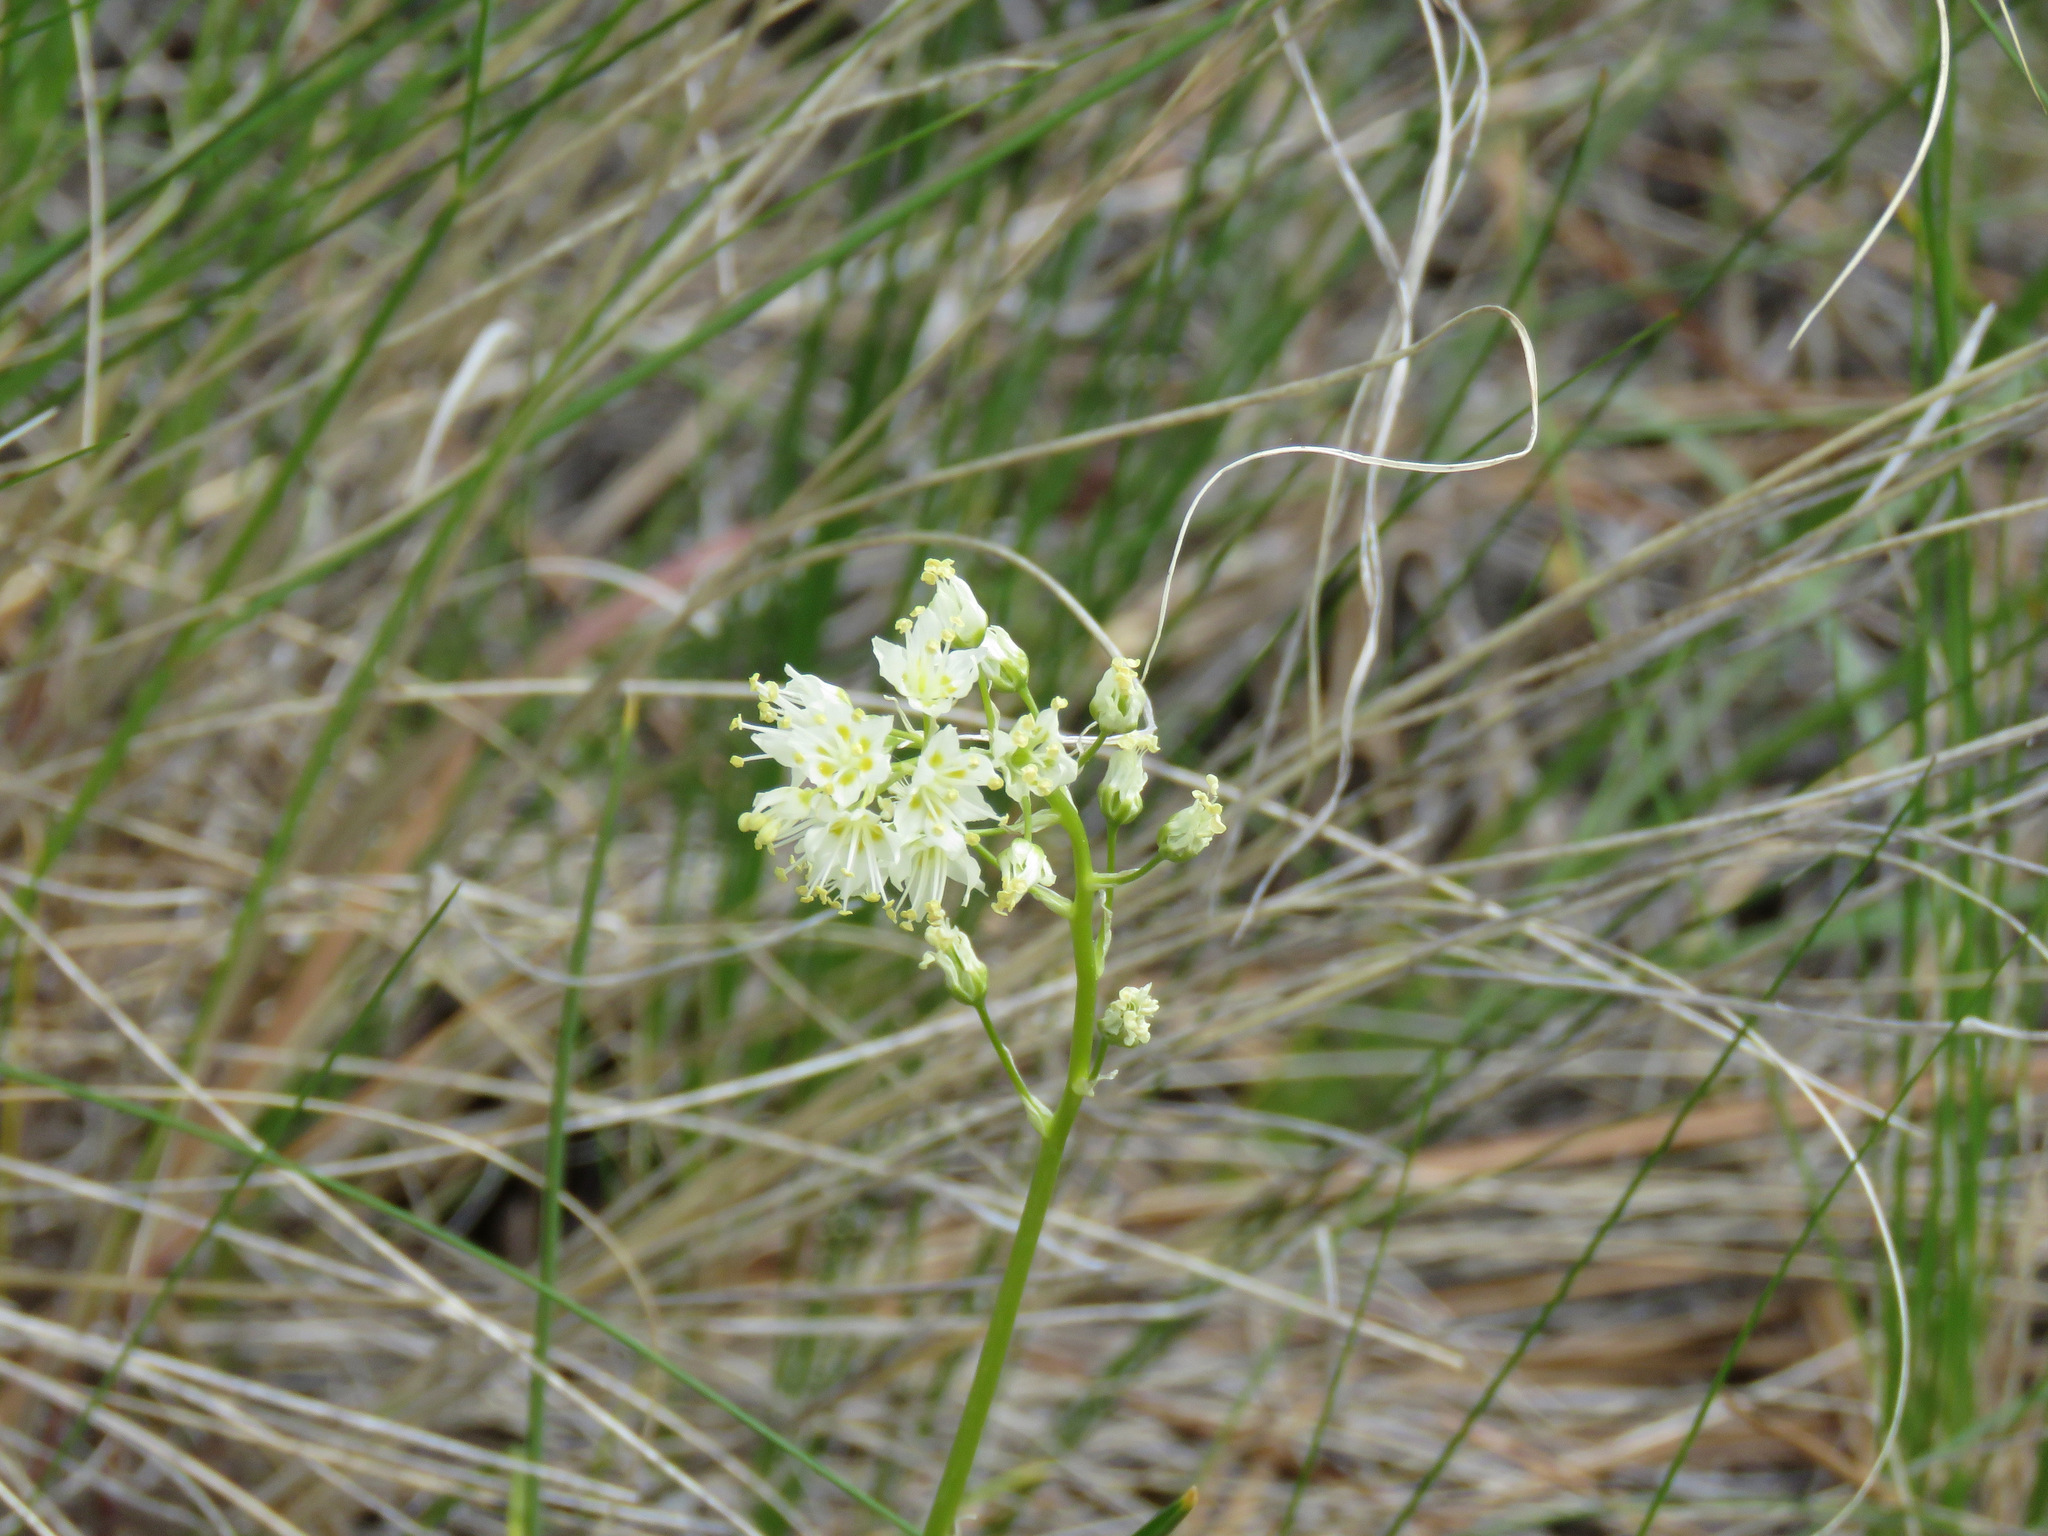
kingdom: Plantae
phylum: Tracheophyta
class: Liliopsida
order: Liliales
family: Melanthiaceae
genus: Toxicoscordion
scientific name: Toxicoscordion venenosum
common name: Meadow death camas
